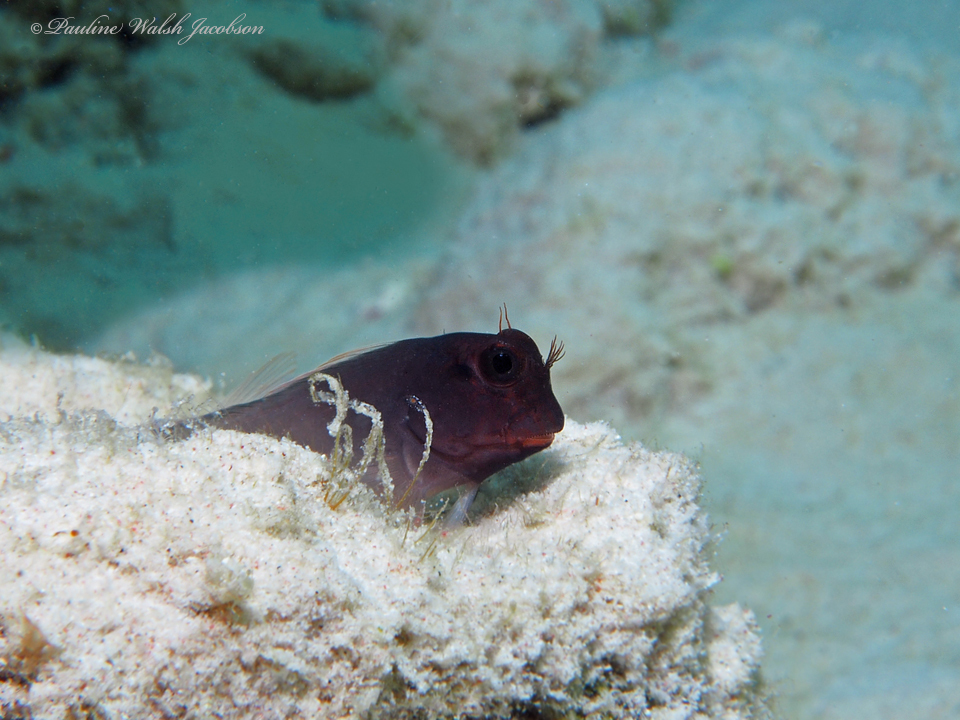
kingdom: Animalia
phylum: Chordata
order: Perciformes
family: Blenniidae
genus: Ophioblennius
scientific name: Ophioblennius macclurei
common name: Redlip blenny
